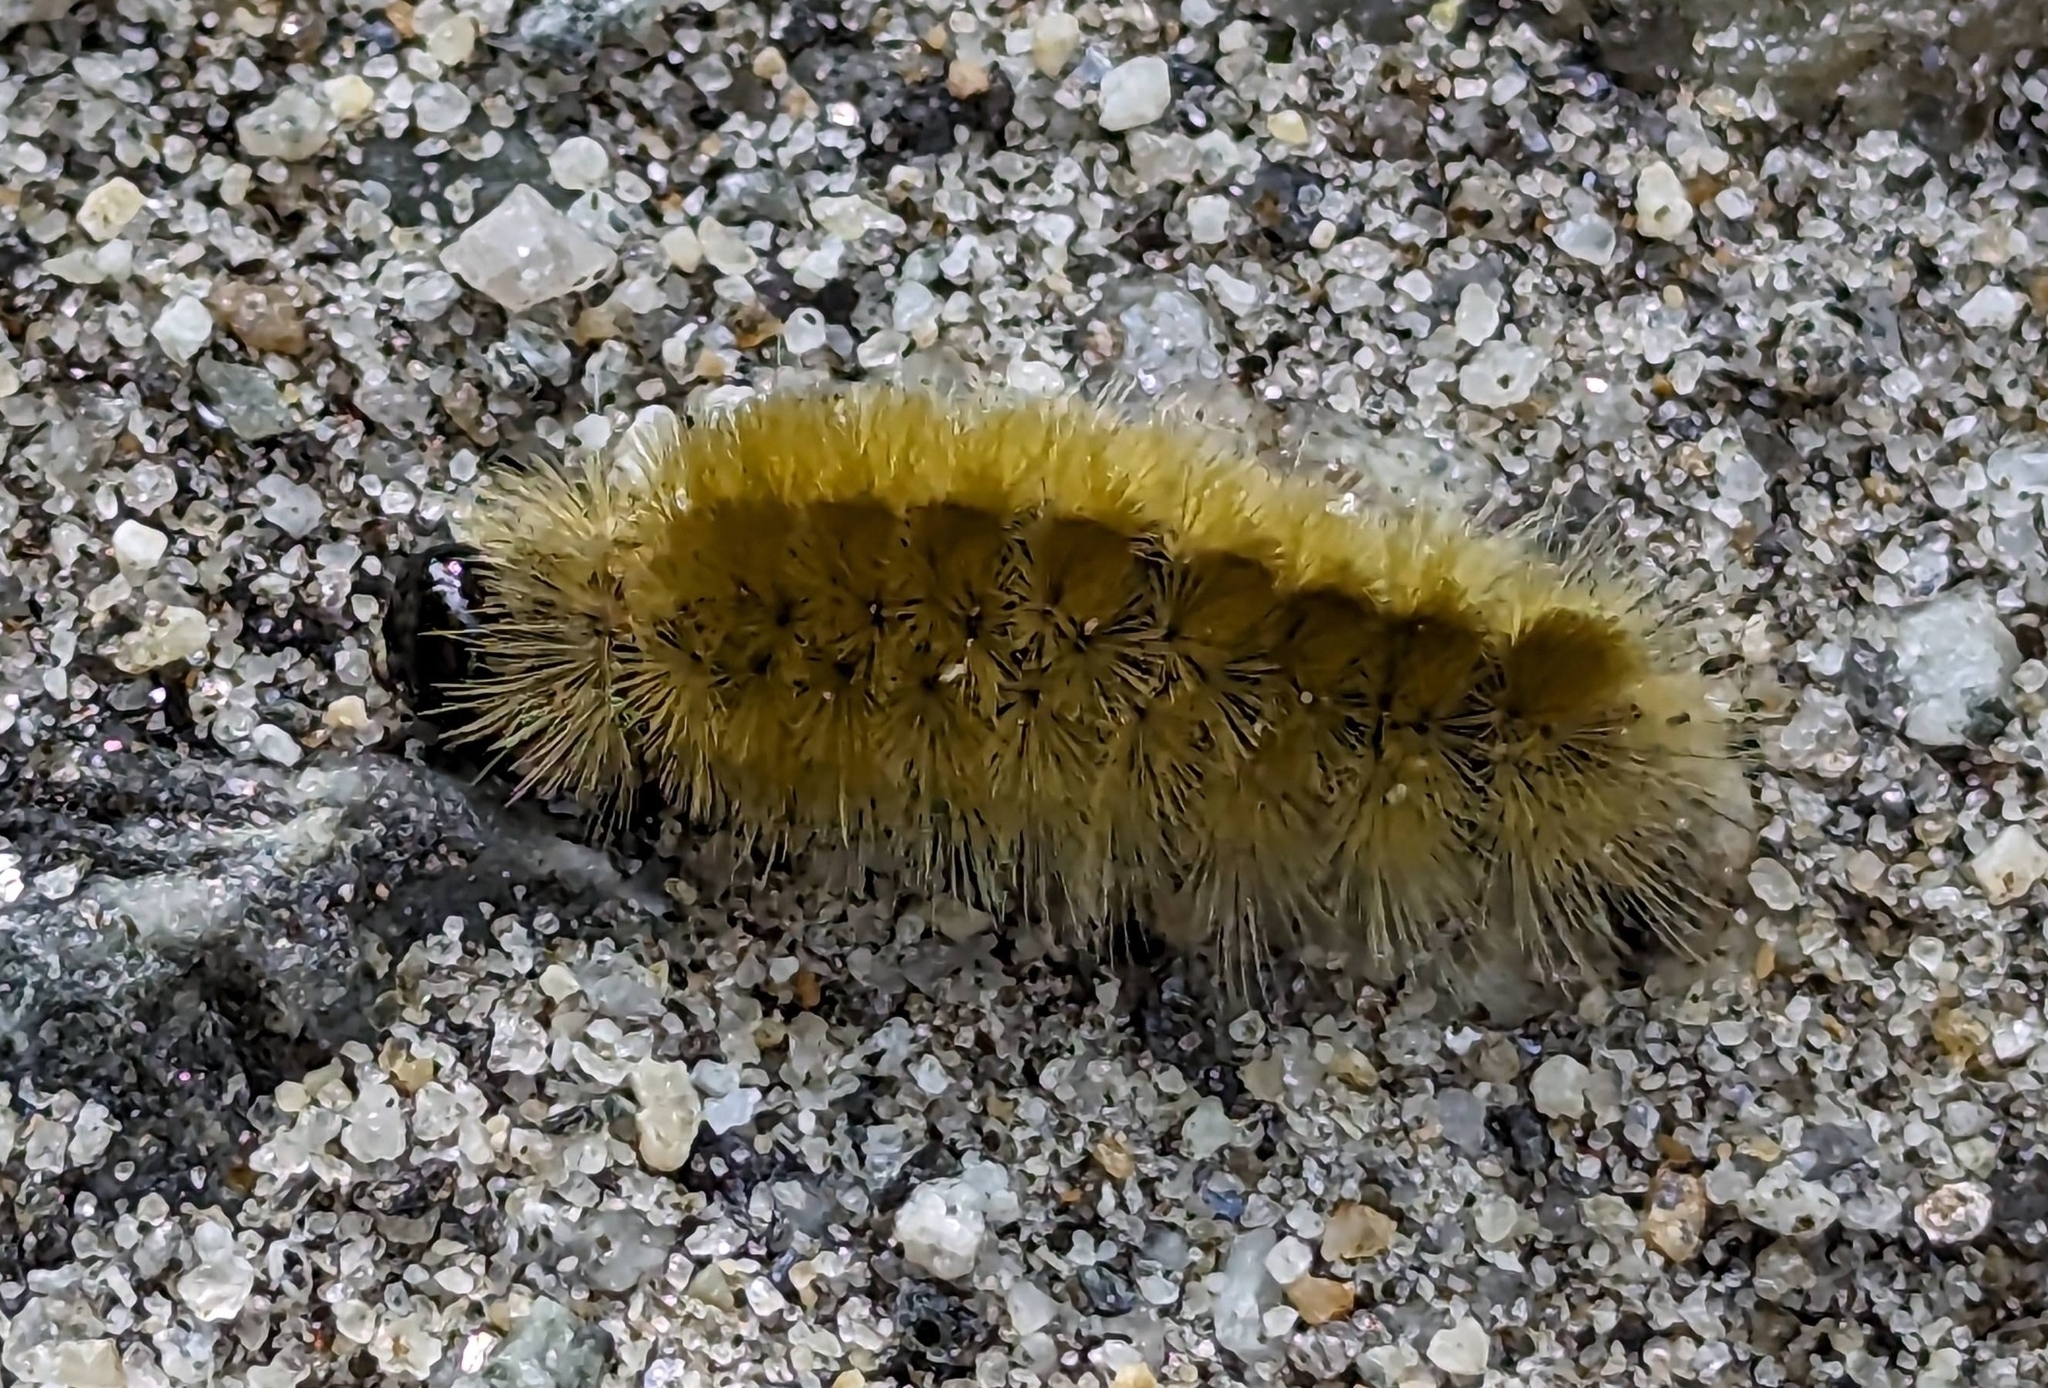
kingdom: Animalia
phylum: Arthropoda
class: Insecta
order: Lepidoptera
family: Erebidae
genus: Halysidota
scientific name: Halysidota tessellaris
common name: Banded tussock moth
